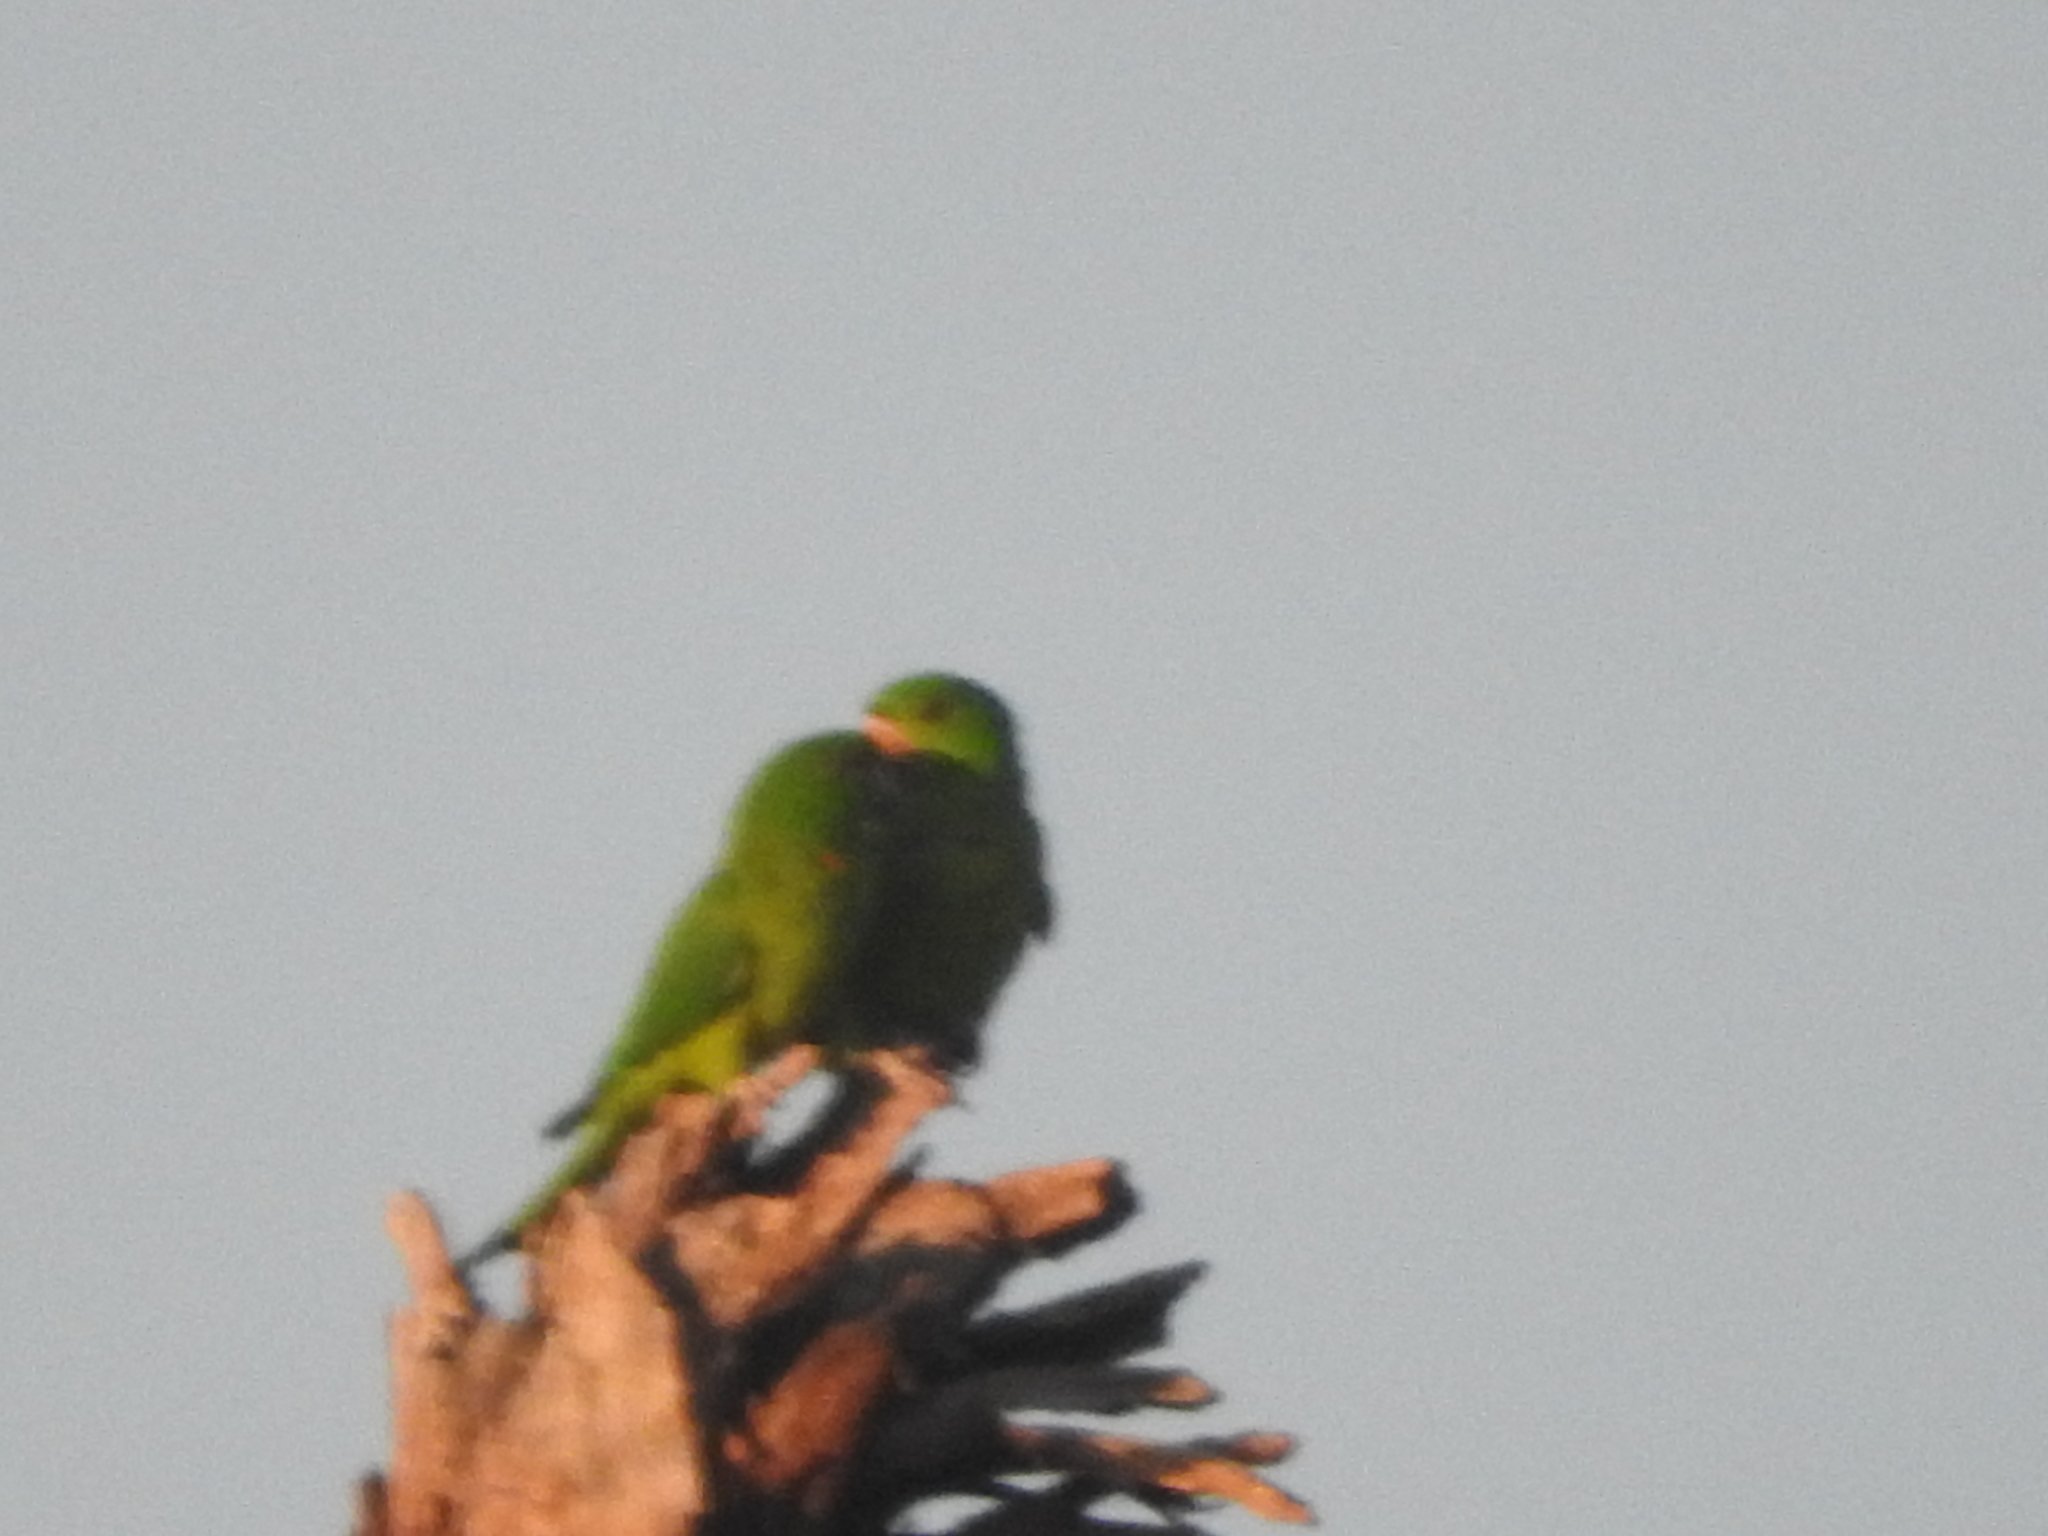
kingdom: Animalia
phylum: Chordata
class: Aves
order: Psittaciformes
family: Psittacidae
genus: Aratinga
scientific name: Aratinga holochlora
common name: Green parakeet
